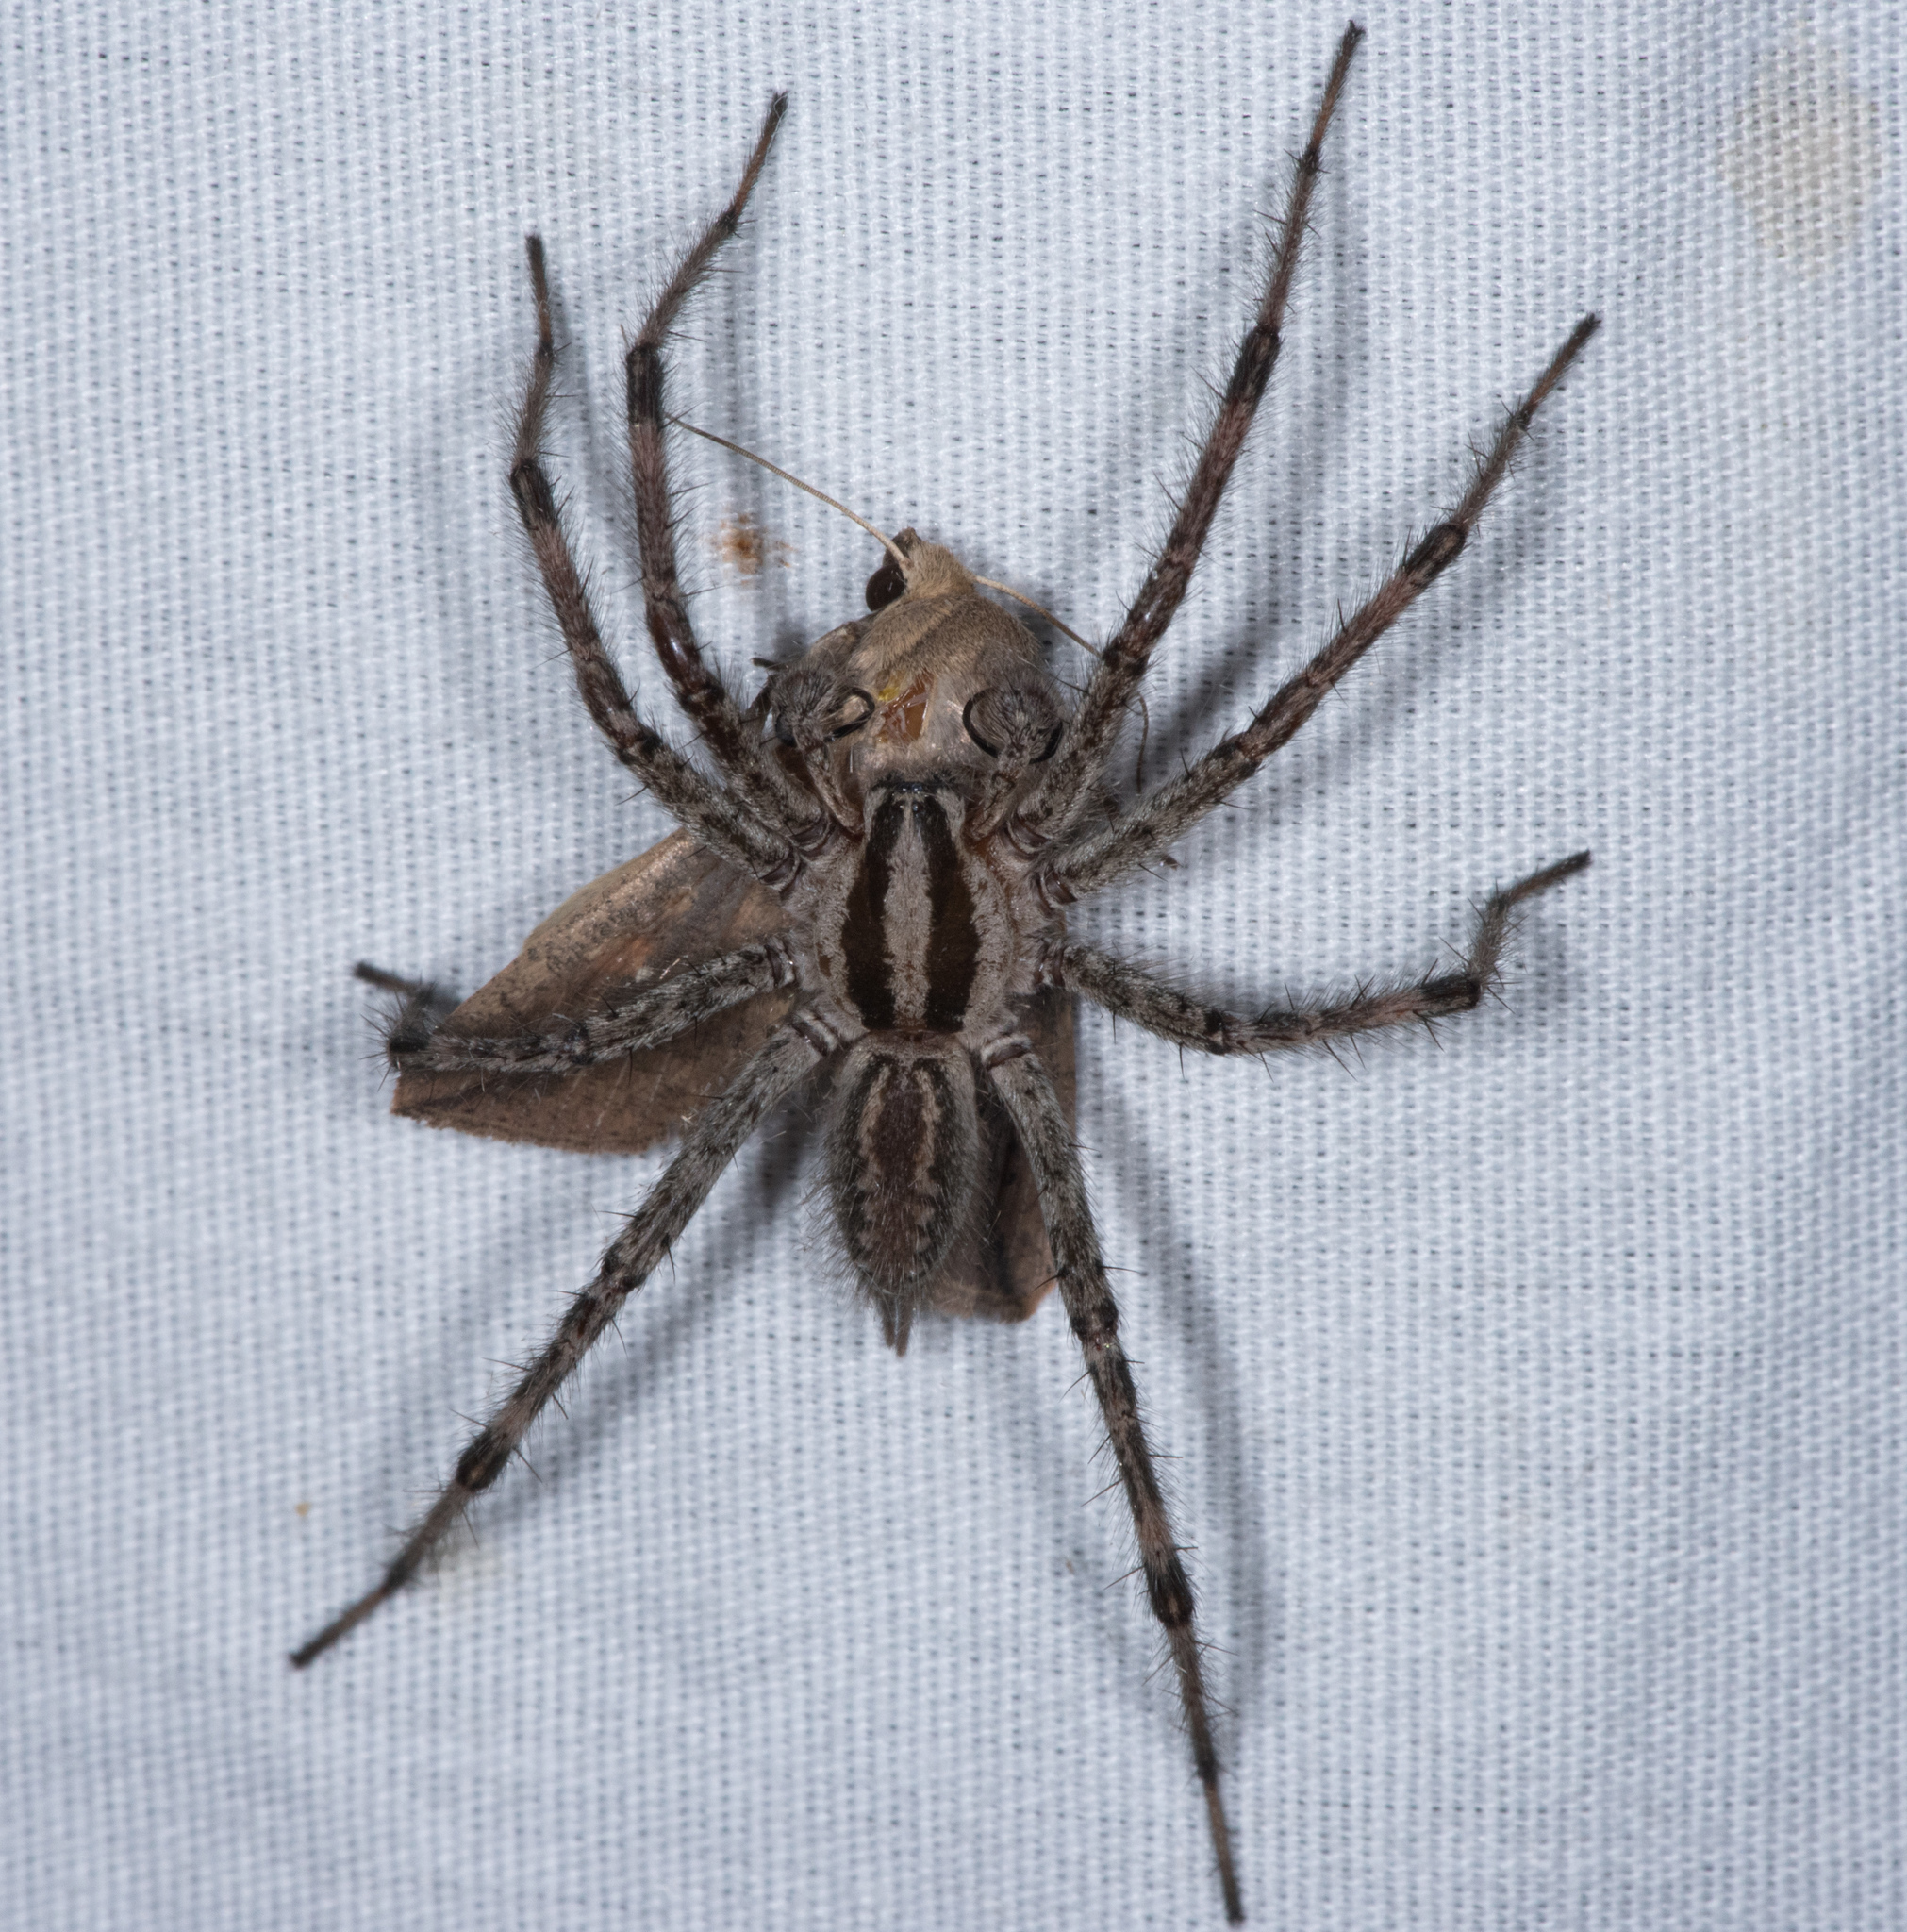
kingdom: Animalia
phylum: Arthropoda
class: Arachnida
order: Araneae
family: Agelenidae
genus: Agelenopsis
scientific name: Agelenopsis aperta
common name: Desert grass spider
